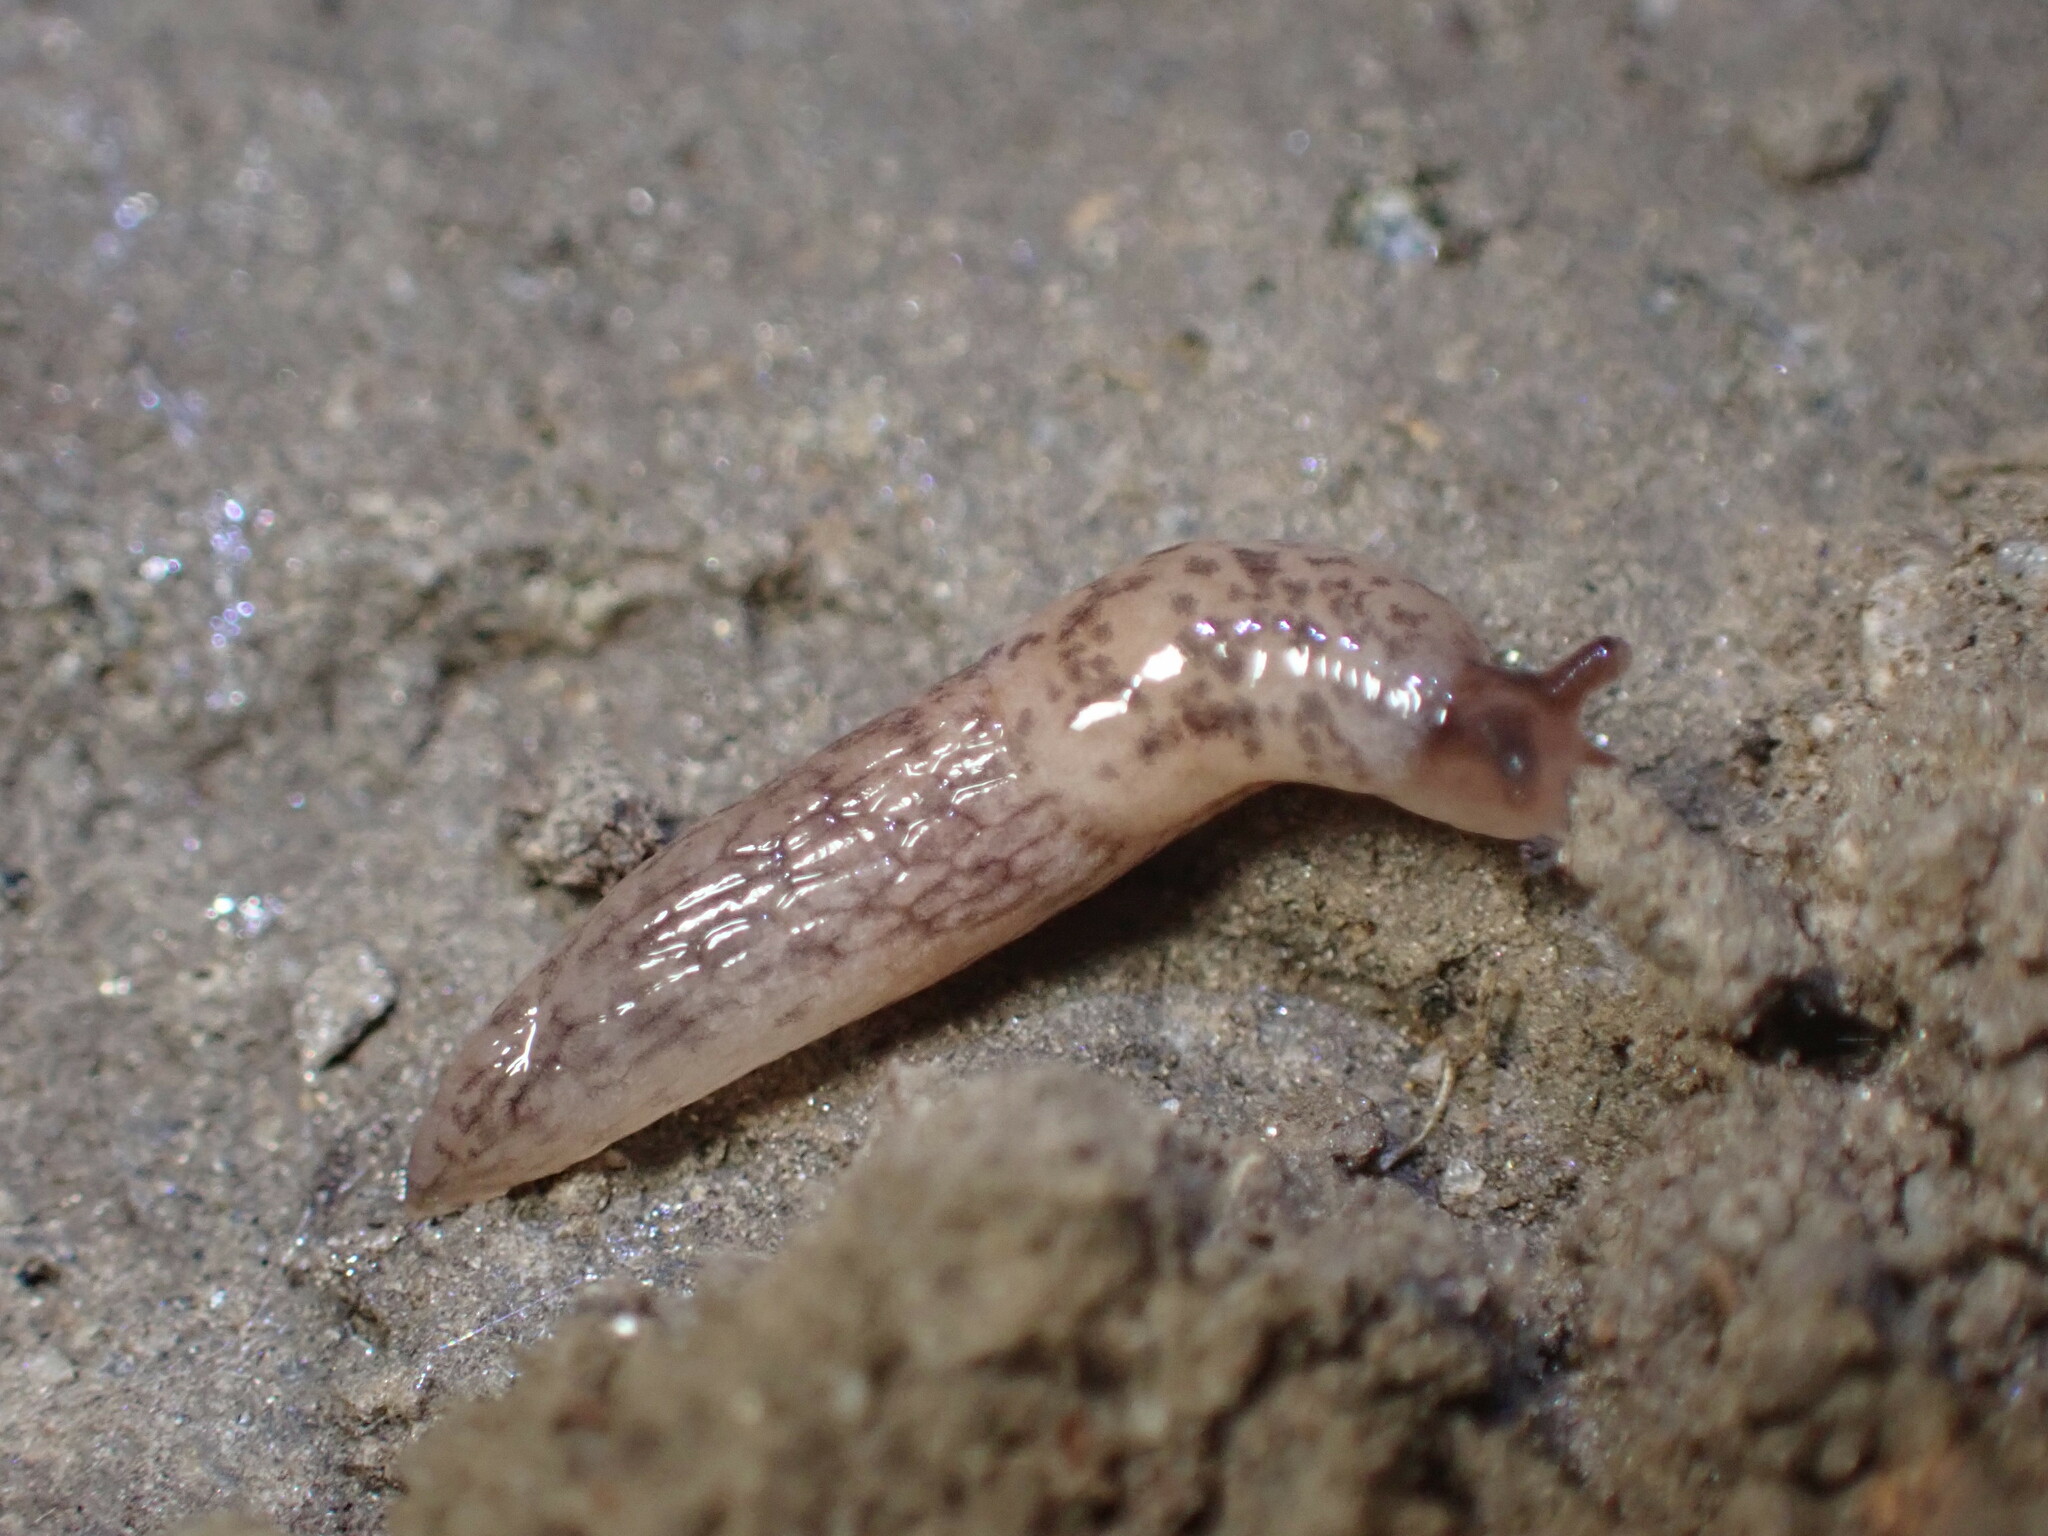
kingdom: Animalia
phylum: Mollusca
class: Gastropoda
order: Stylommatophora
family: Agriolimacidae
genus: Deroceras
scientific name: Deroceras reticulatum
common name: Gray field slug
